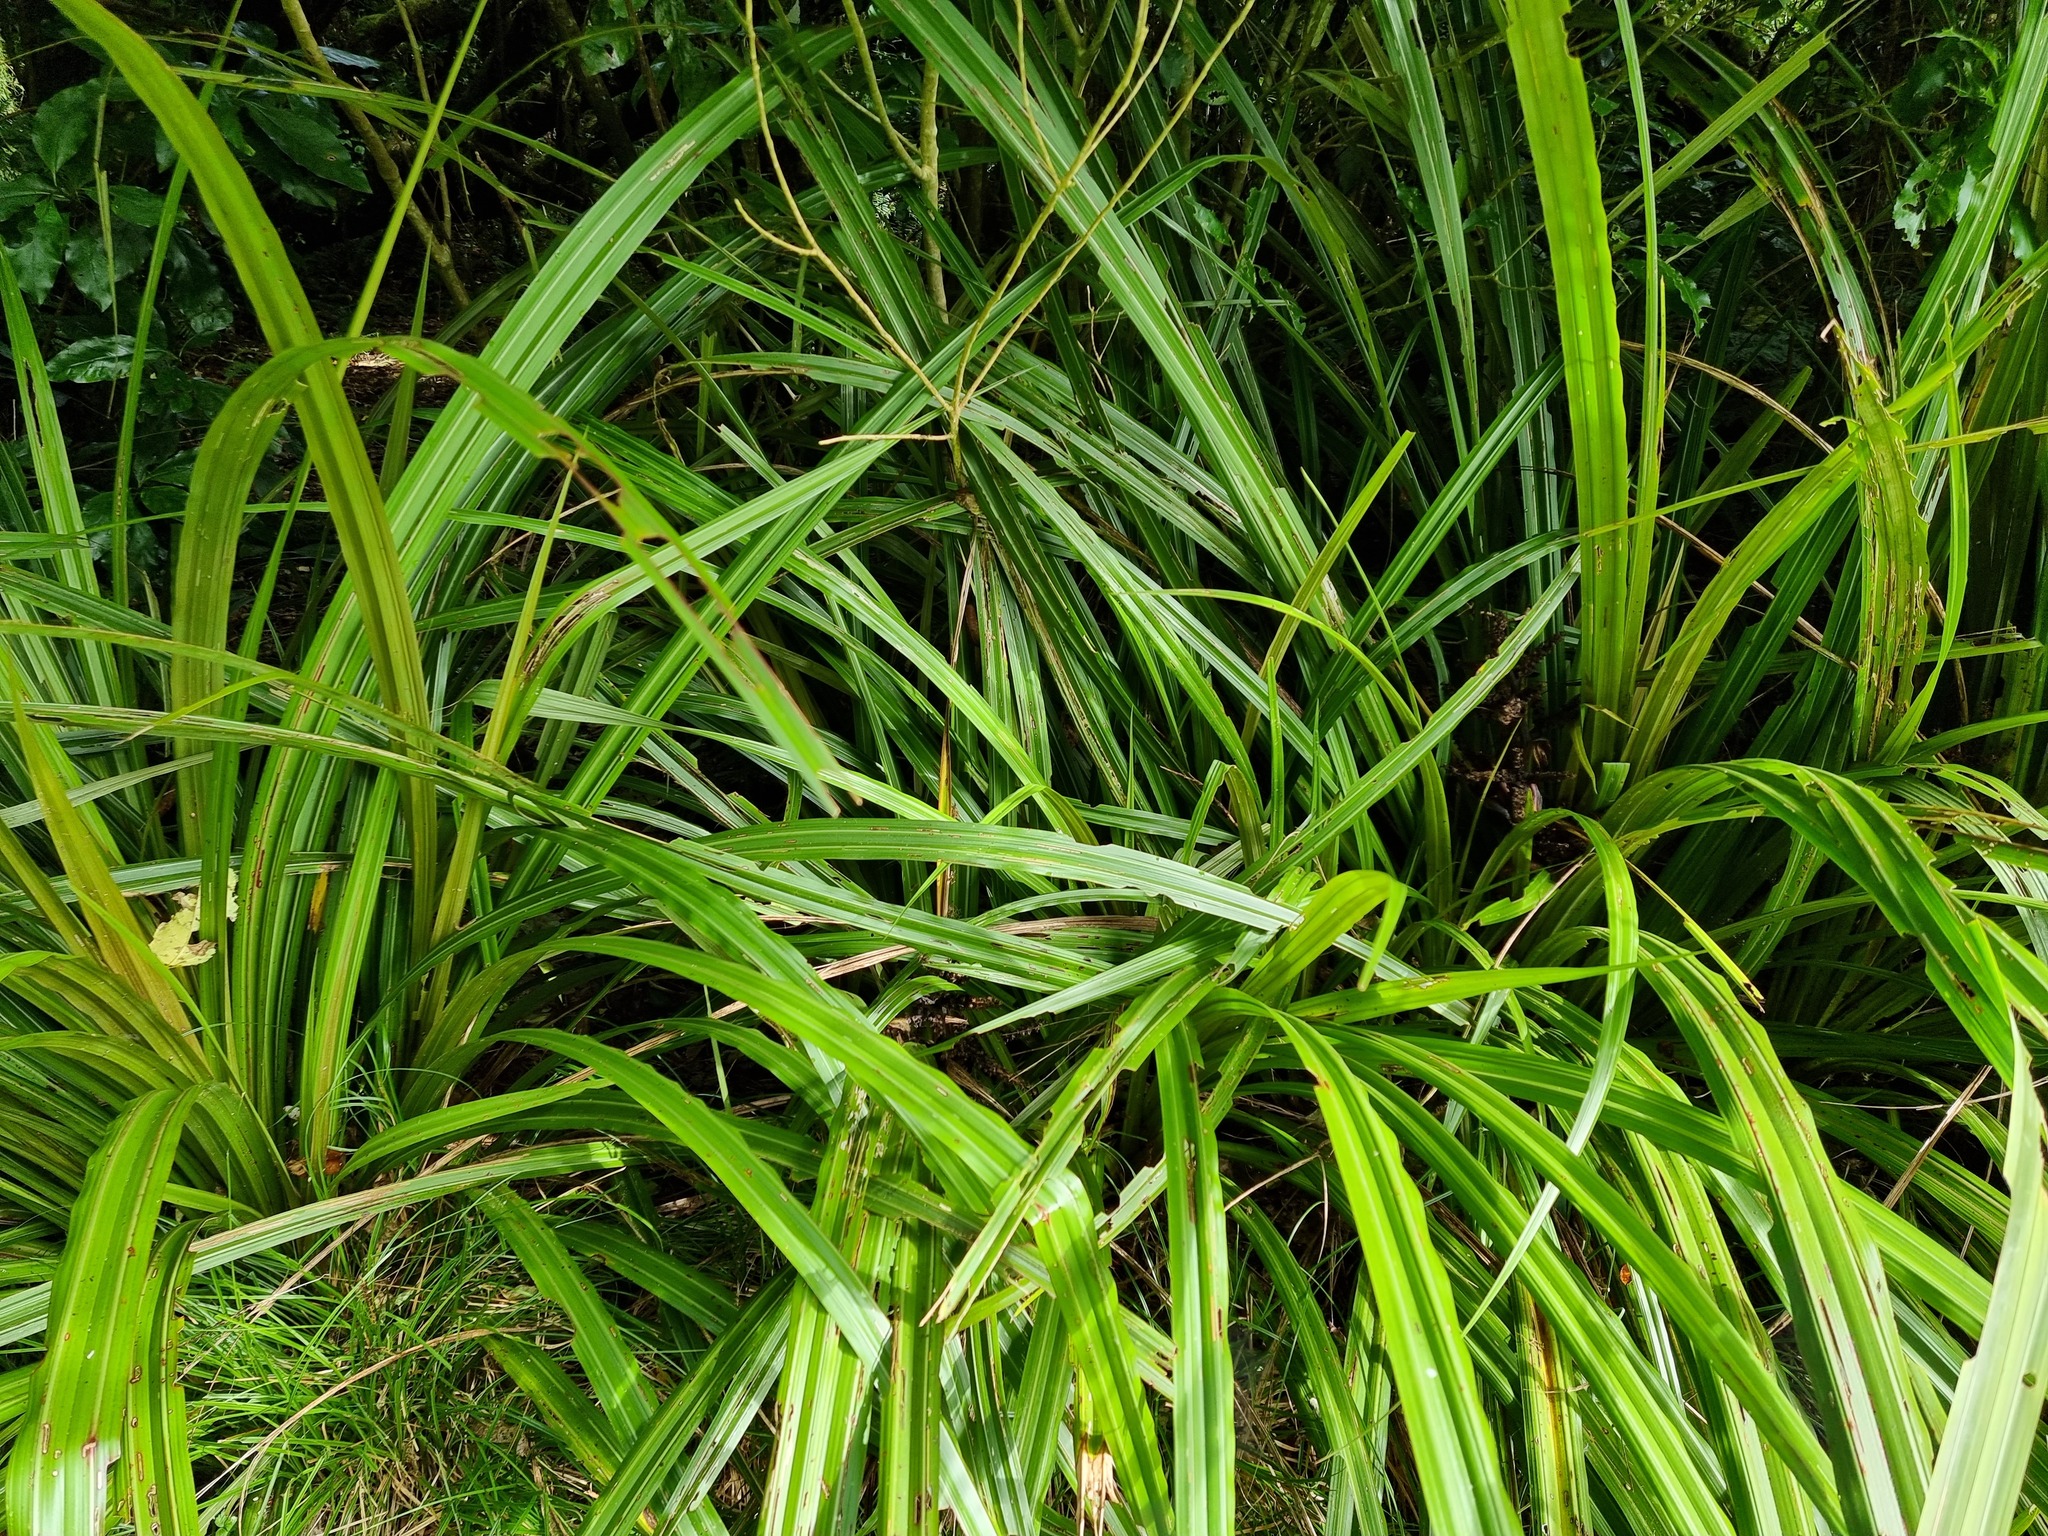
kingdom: Plantae
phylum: Tracheophyta
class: Liliopsida
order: Asparagales
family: Asteliaceae
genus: Astelia
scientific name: Astelia fragrans
